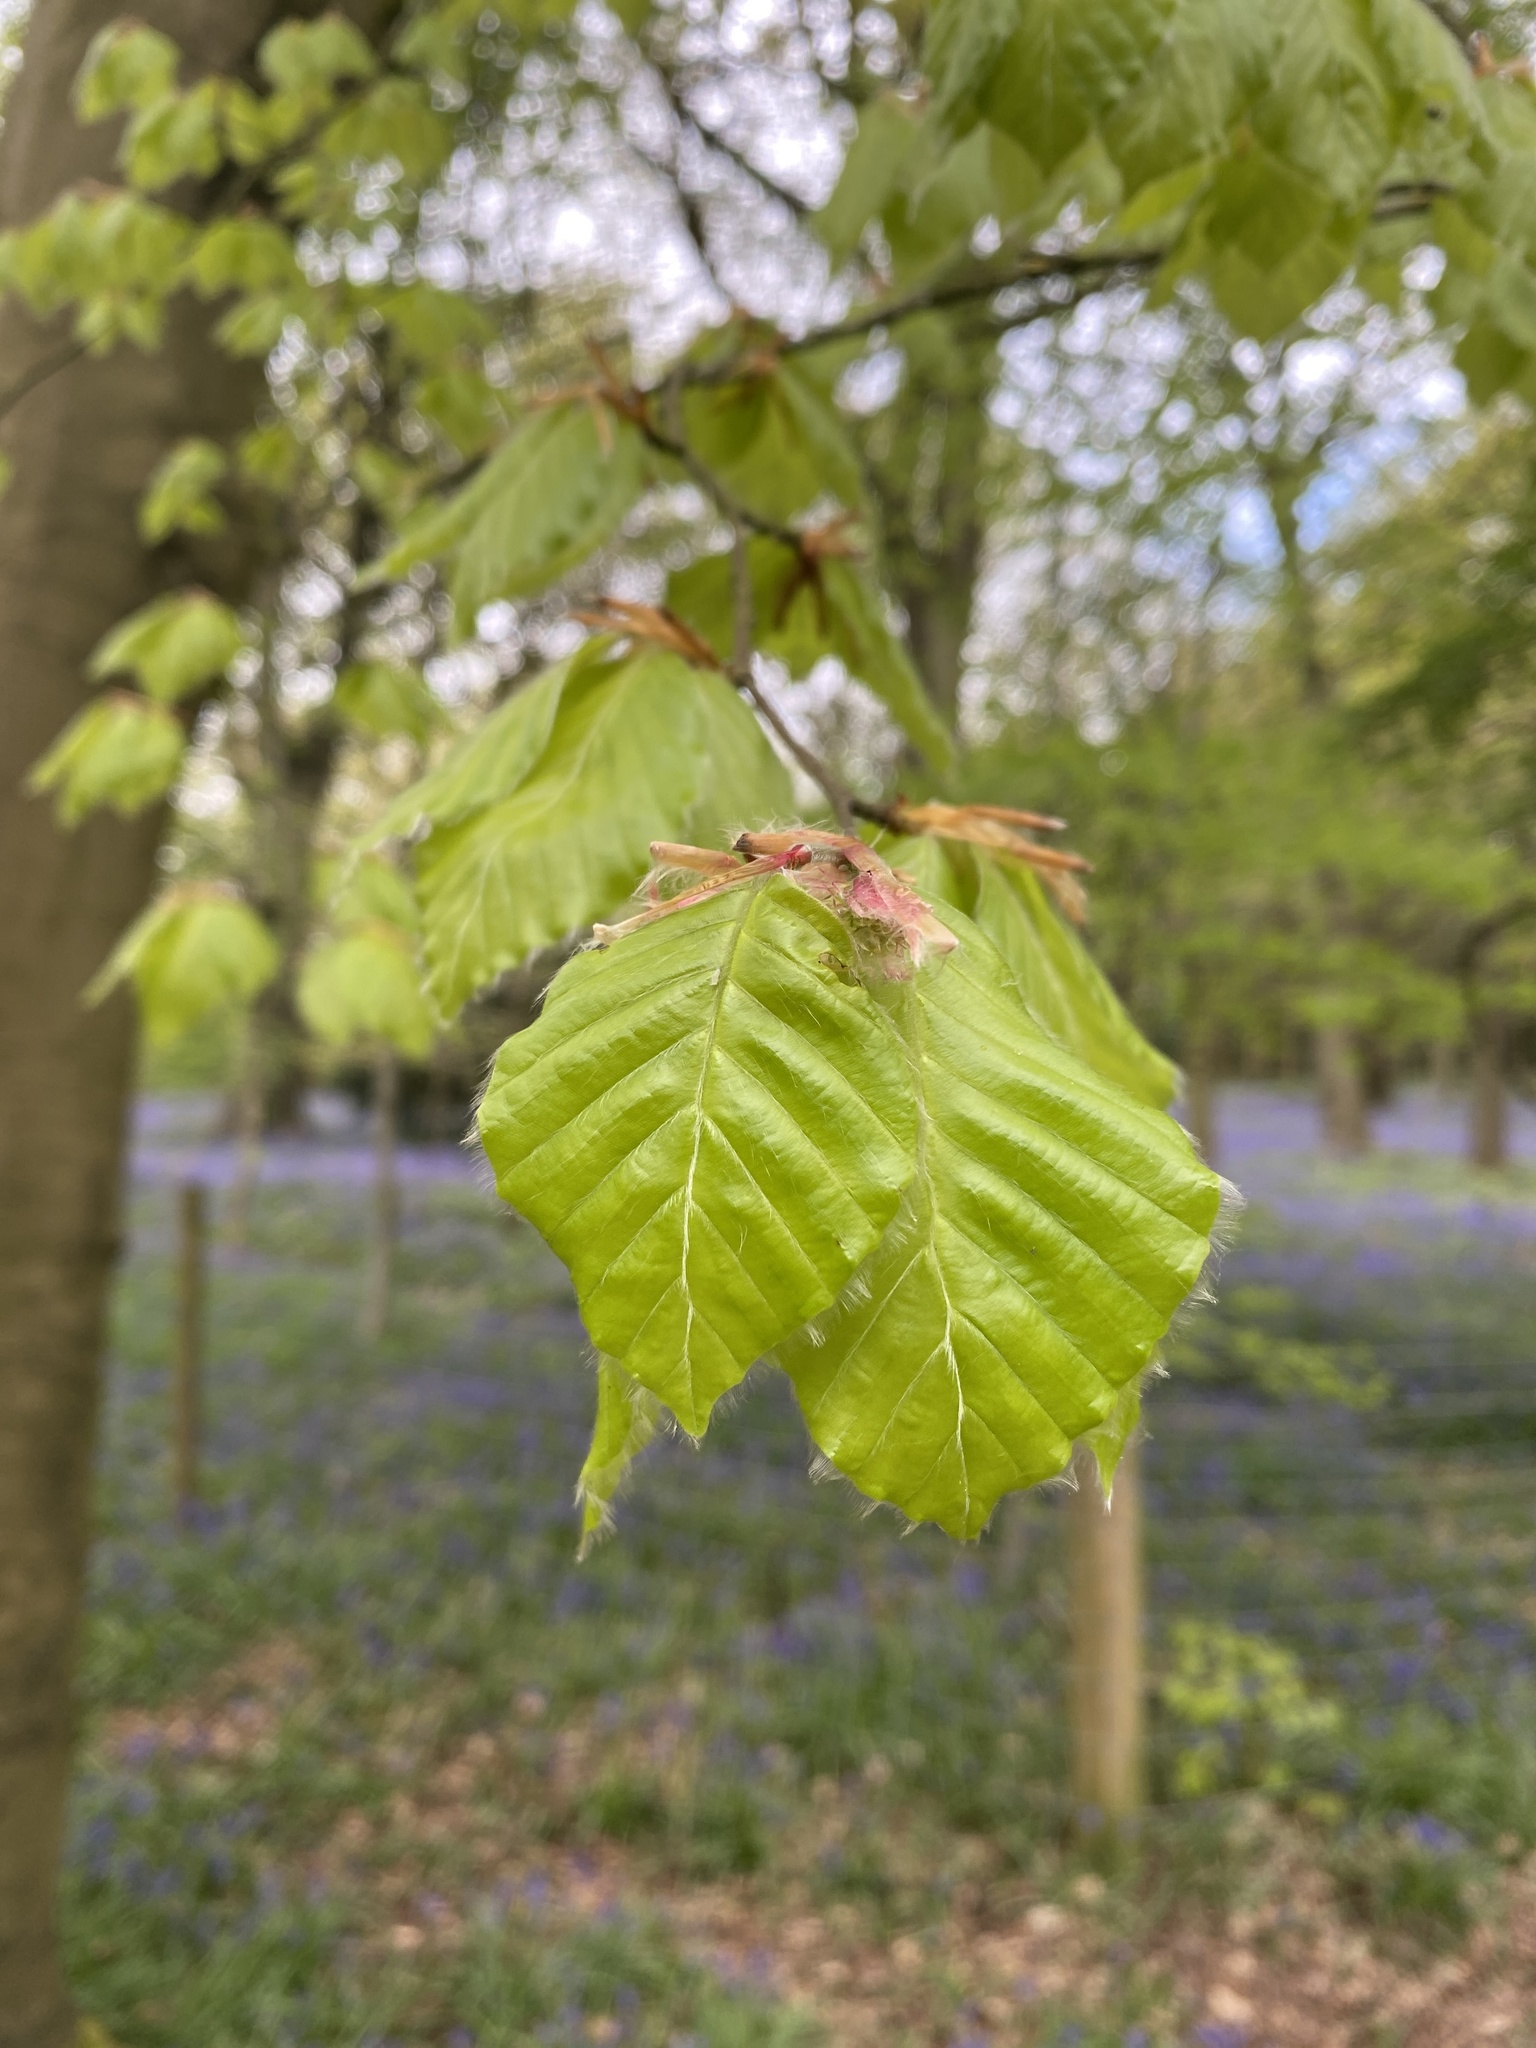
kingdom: Plantae
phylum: Tracheophyta
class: Magnoliopsida
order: Fagales
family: Fagaceae
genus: Fagus
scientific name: Fagus sylvatica
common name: Beech
